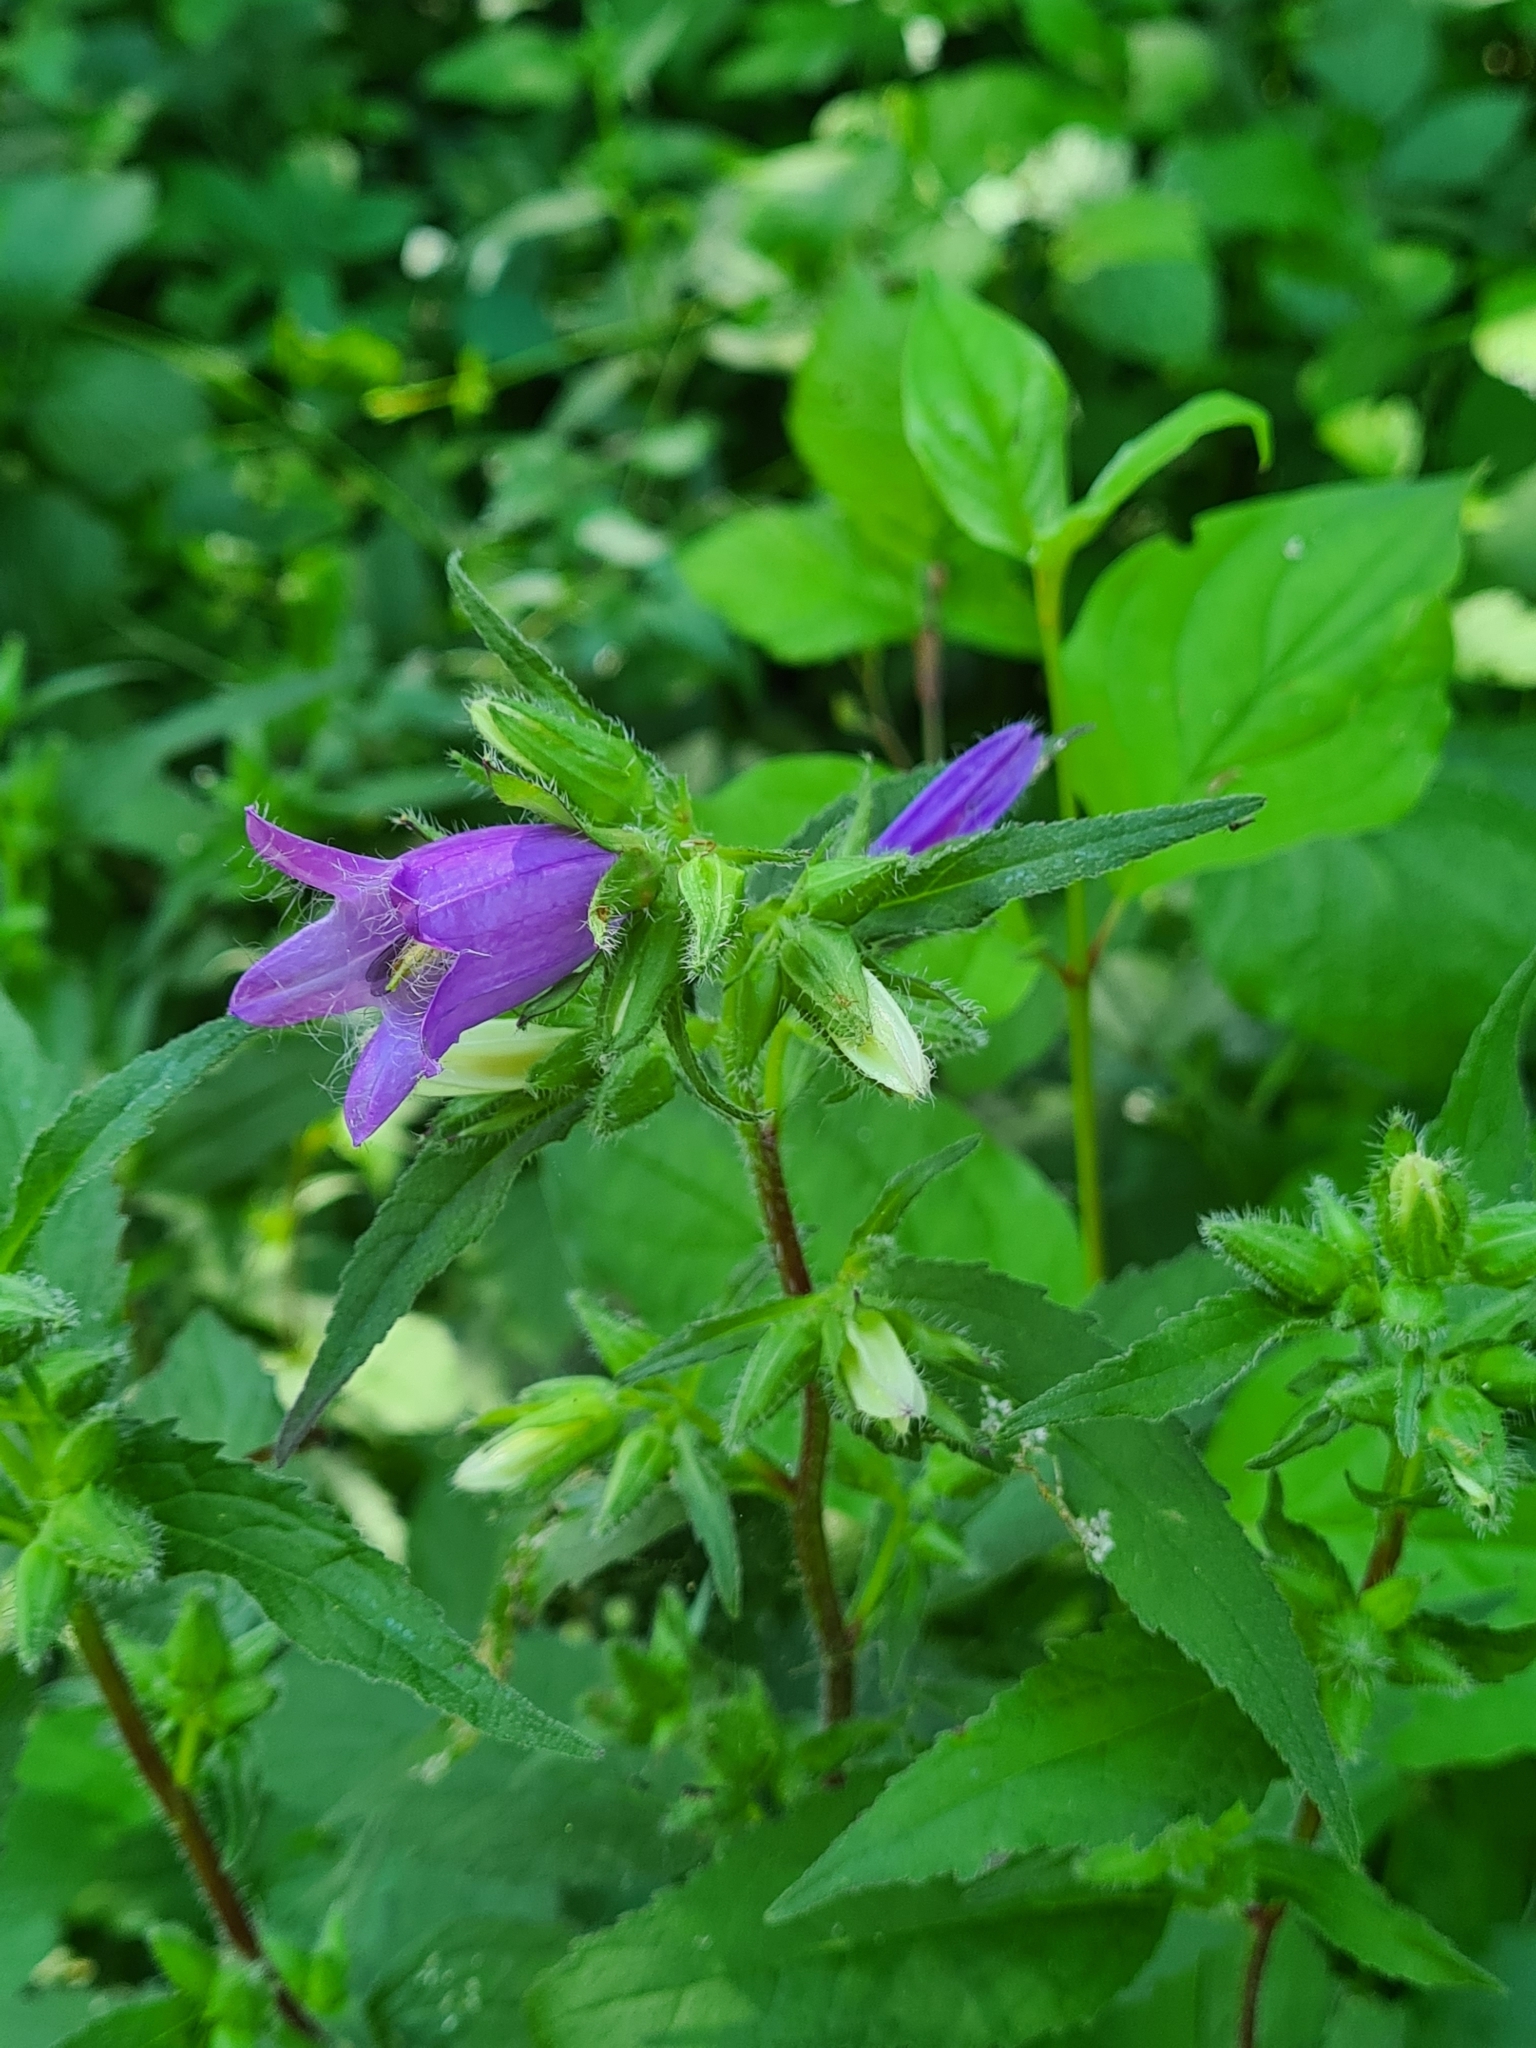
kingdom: Plantae
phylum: Tracheophyta
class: Magnoliopsida
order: Asterales
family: Campanulaceae
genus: Campanula
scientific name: Campanula trachelium
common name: Nettle-leaved bellflower
